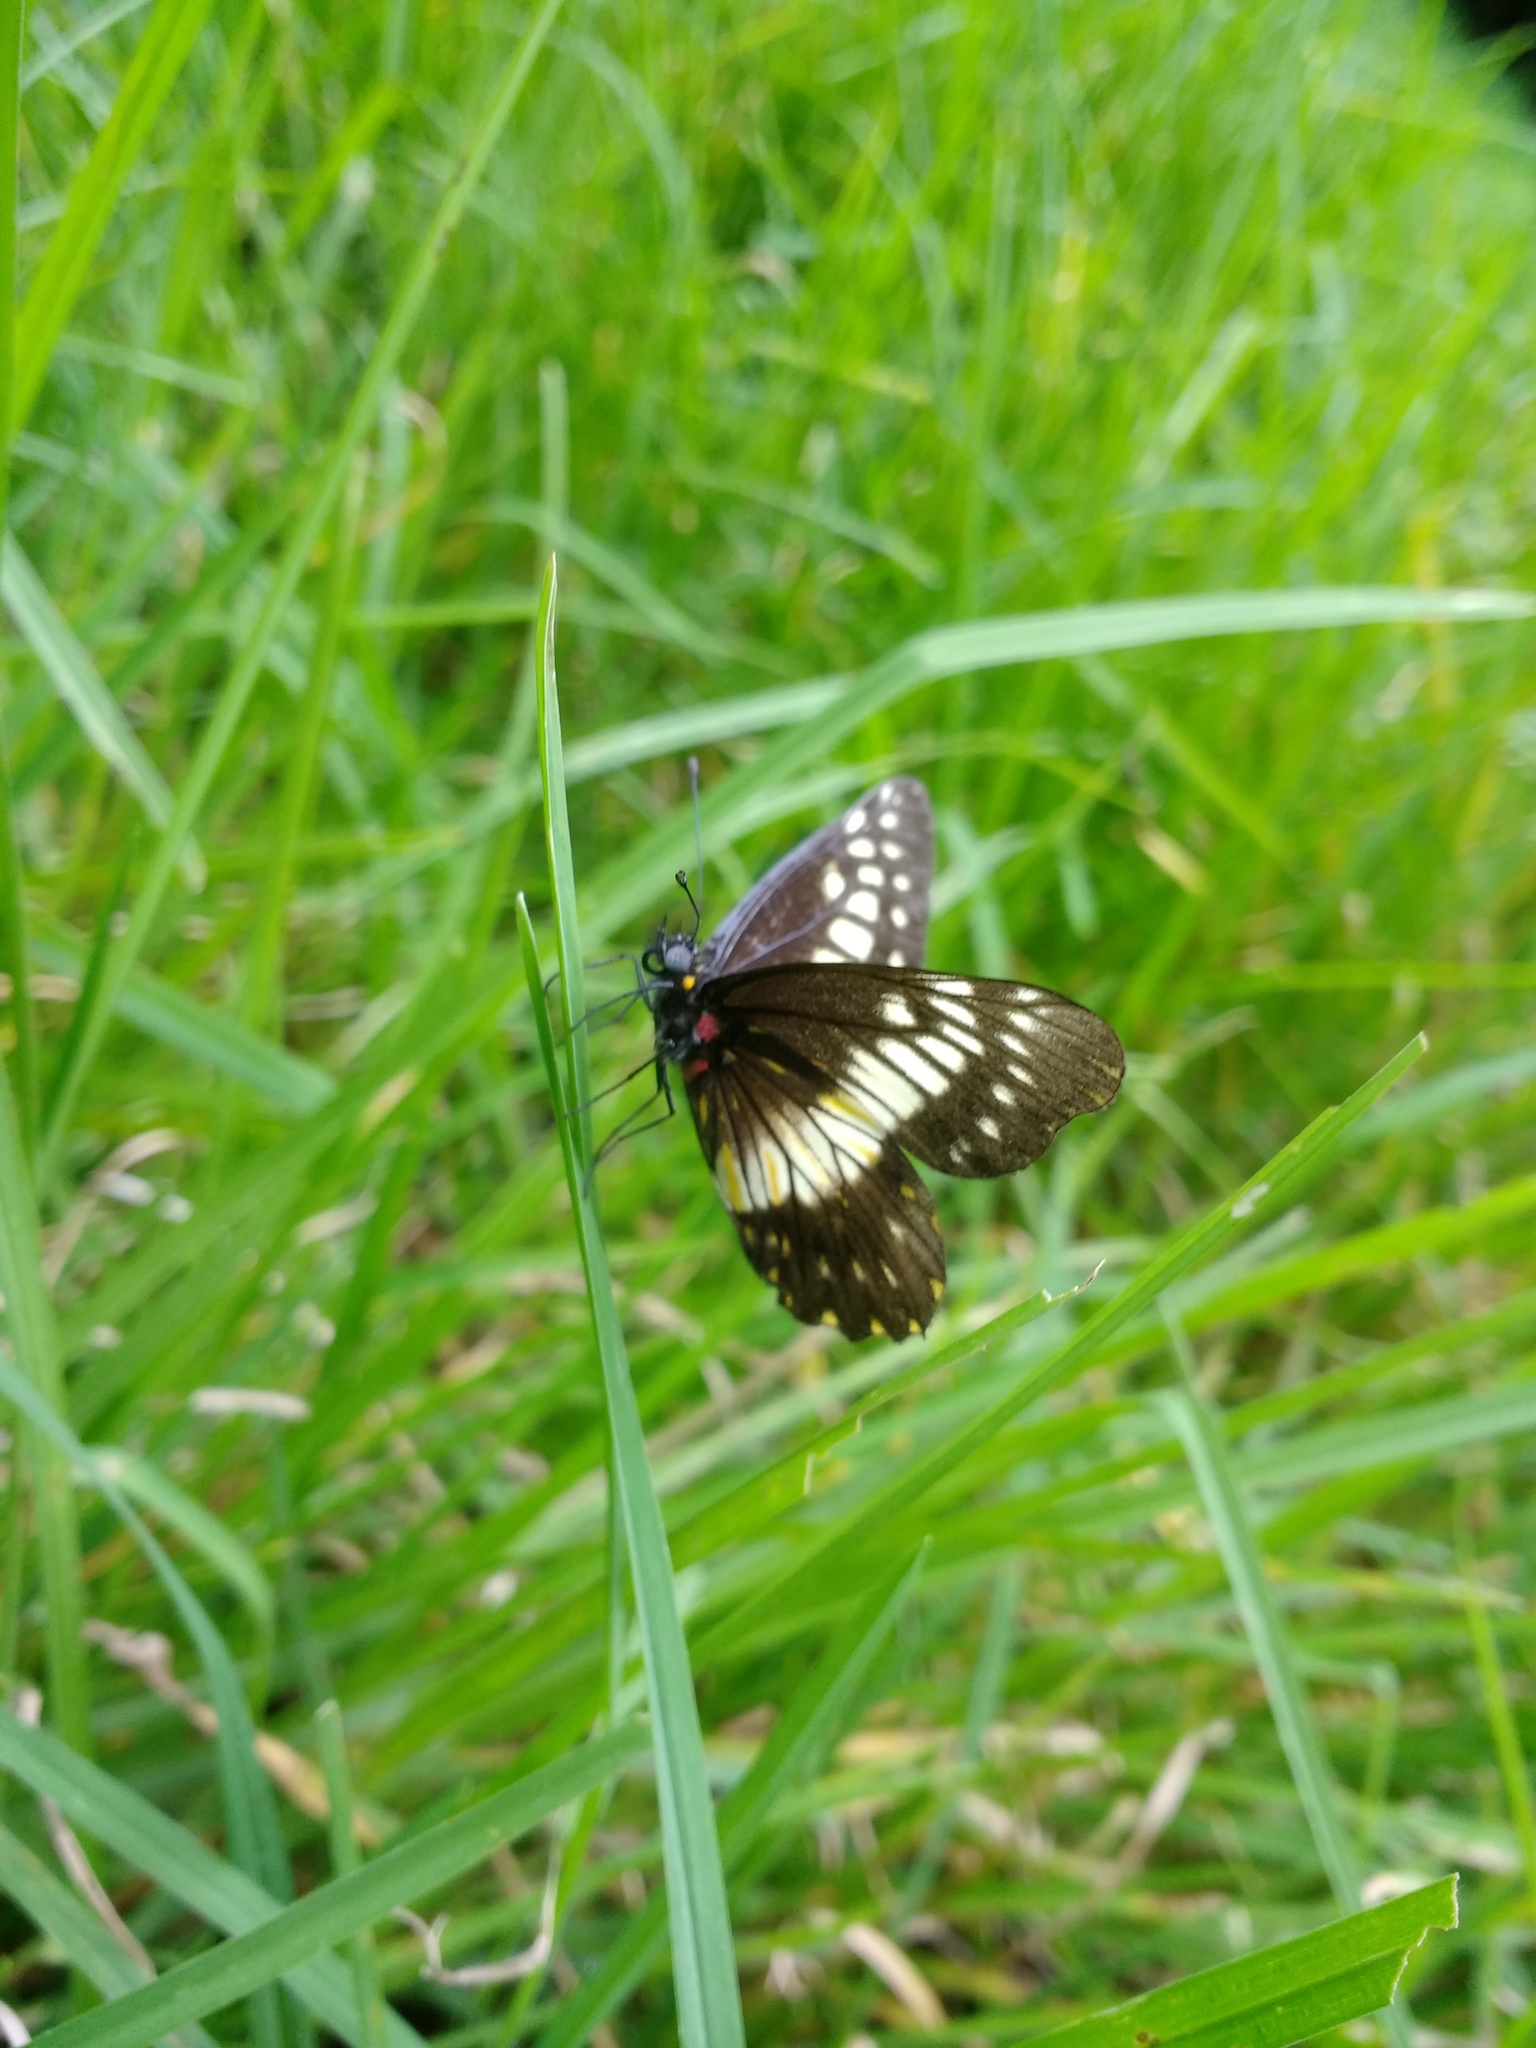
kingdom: Animalia
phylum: Arthropoda
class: Insecta
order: Lepidoptera
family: Pieridae
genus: Archonias
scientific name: Archonias nimbice
